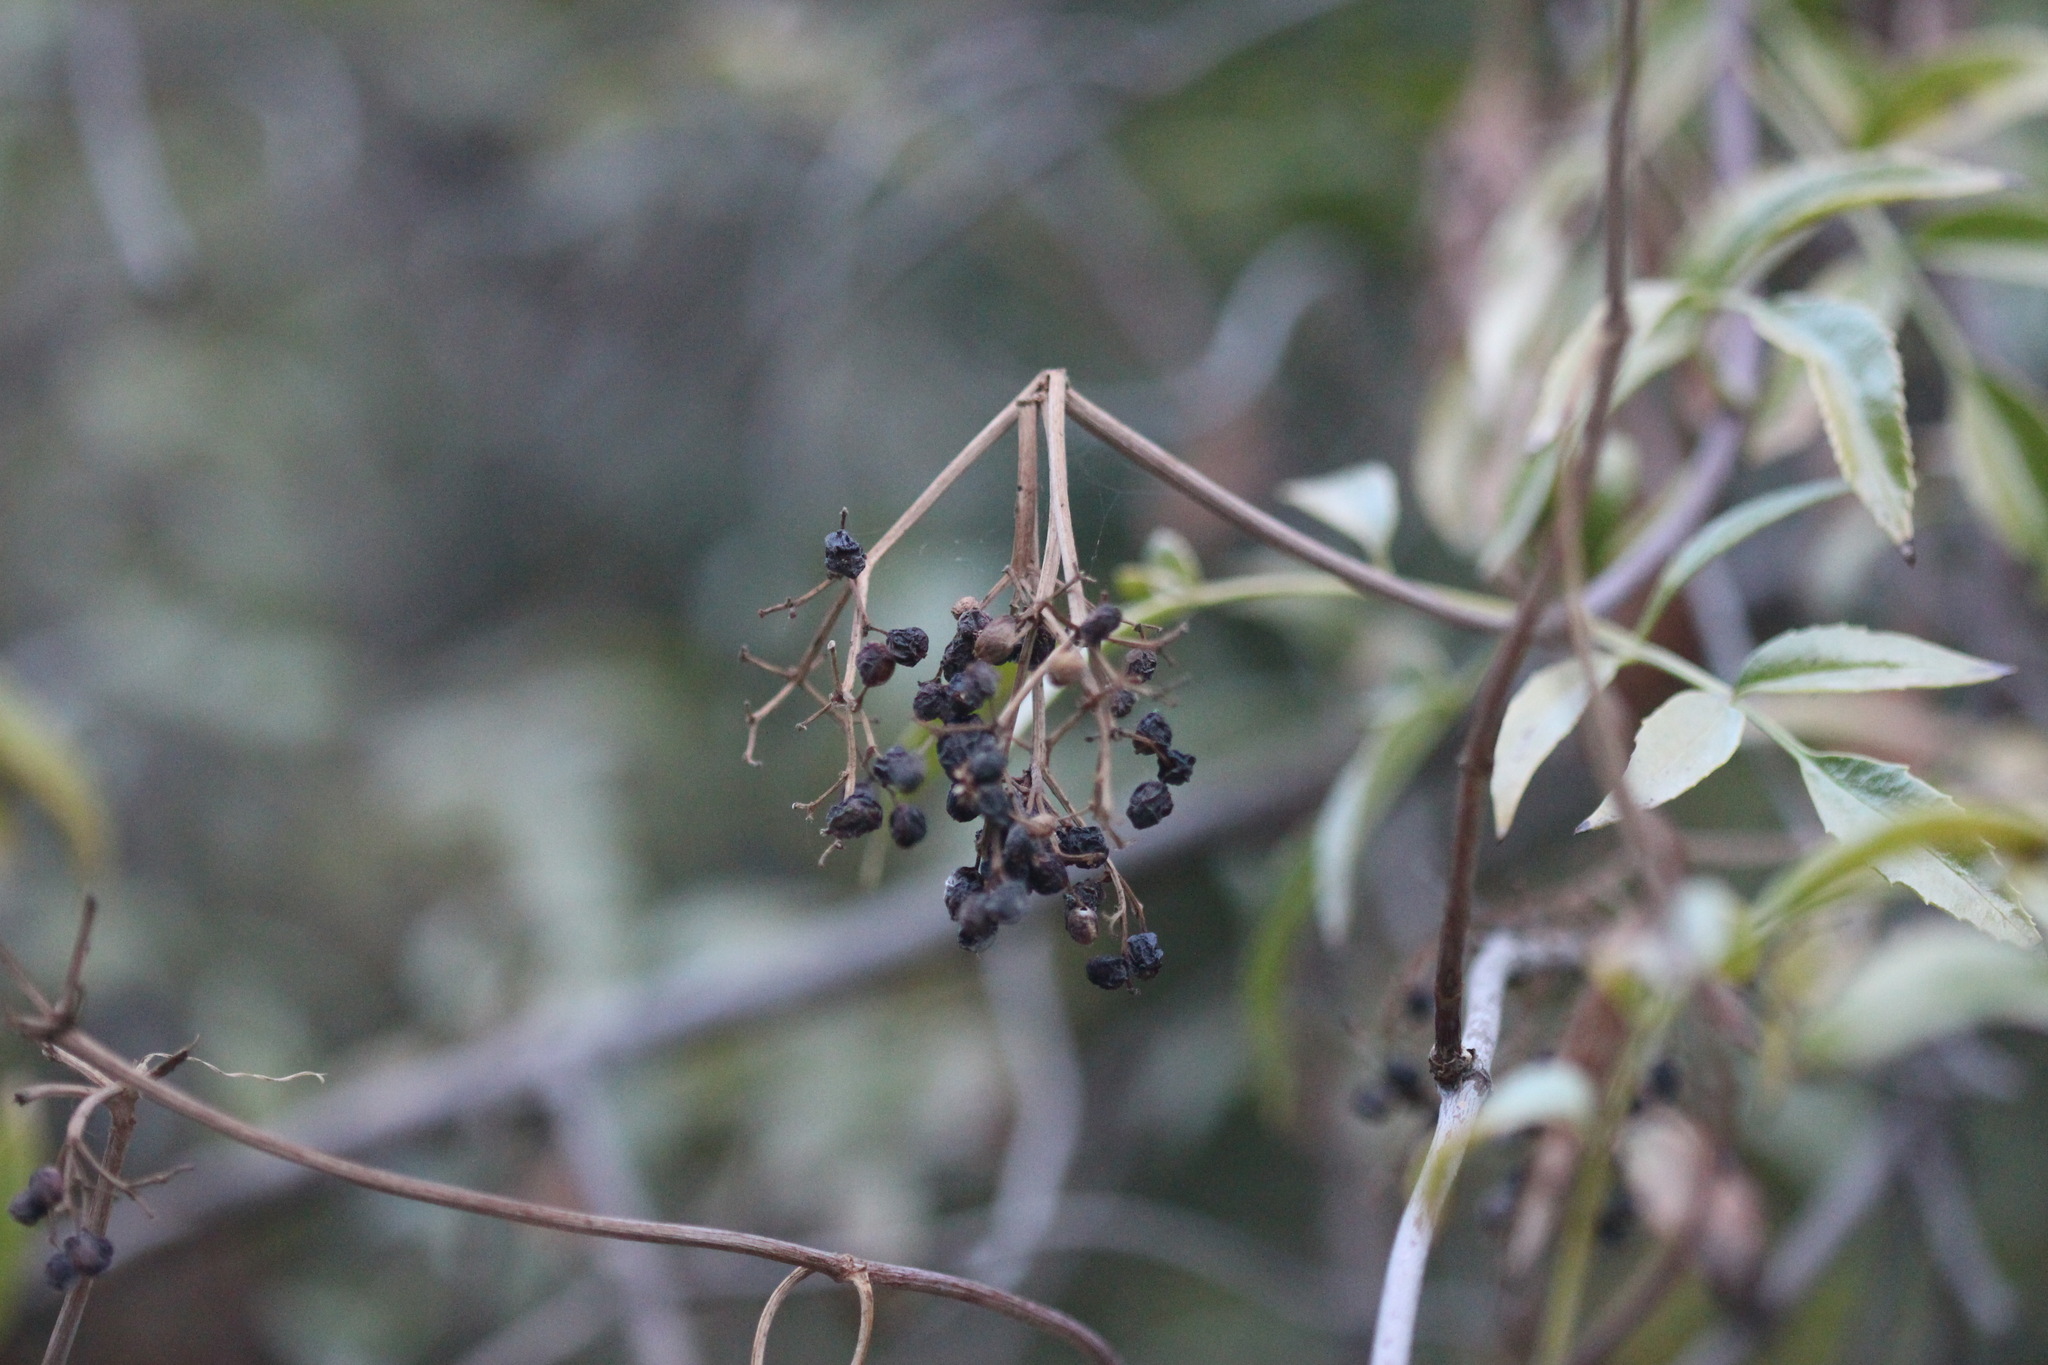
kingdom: Plantae
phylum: Tracheophyta
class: Magnoliopsida
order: Dipsacales
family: Viburnaceae
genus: Sambucus
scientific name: Sambucus cerulea
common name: Blue elder
